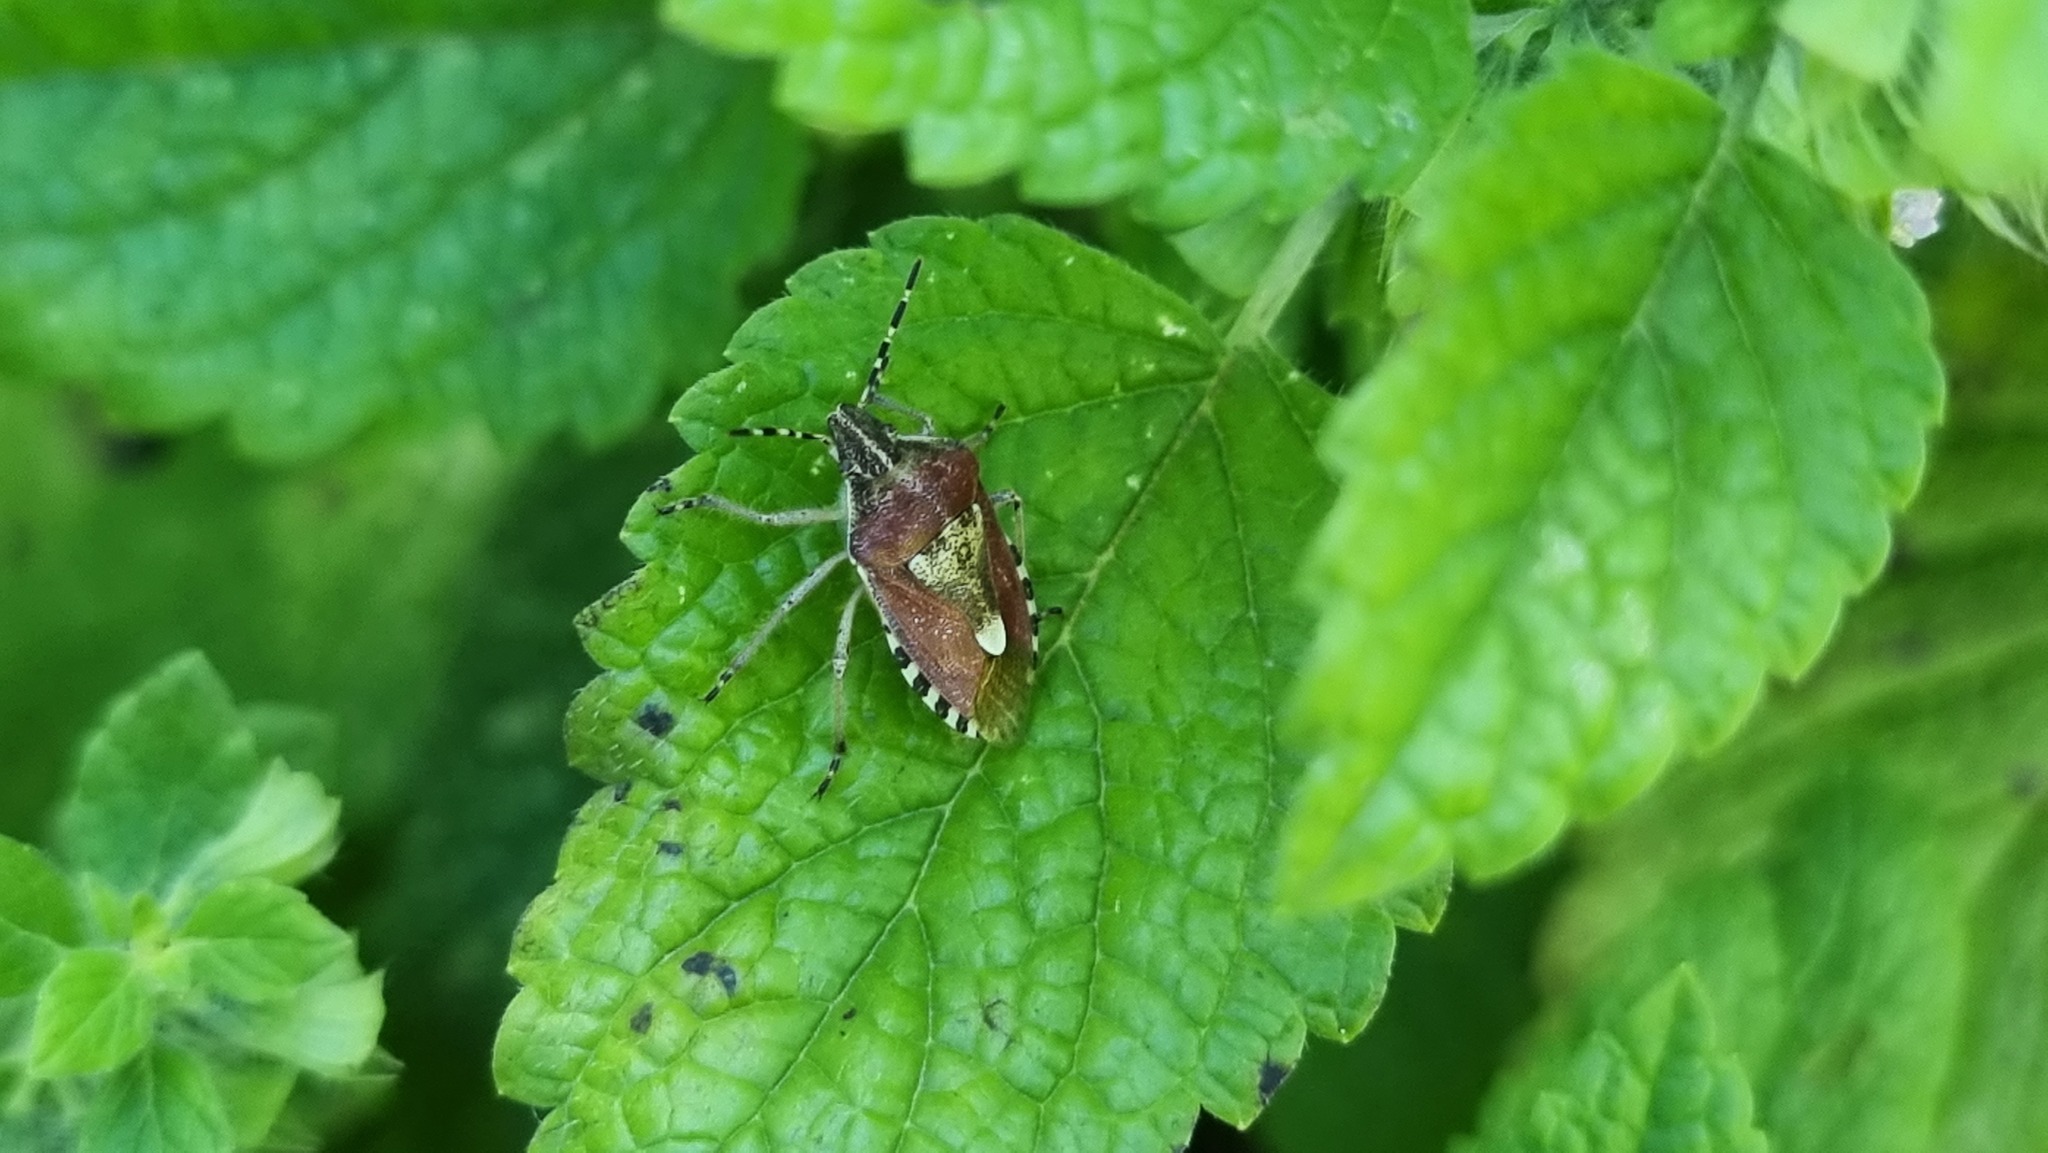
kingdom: Animalia
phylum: Arthropoda
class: Insecta
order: Hemiptera
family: Pentatomidae
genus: Dolycoris
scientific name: Dolycoris baccarum
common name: Sloe bug
